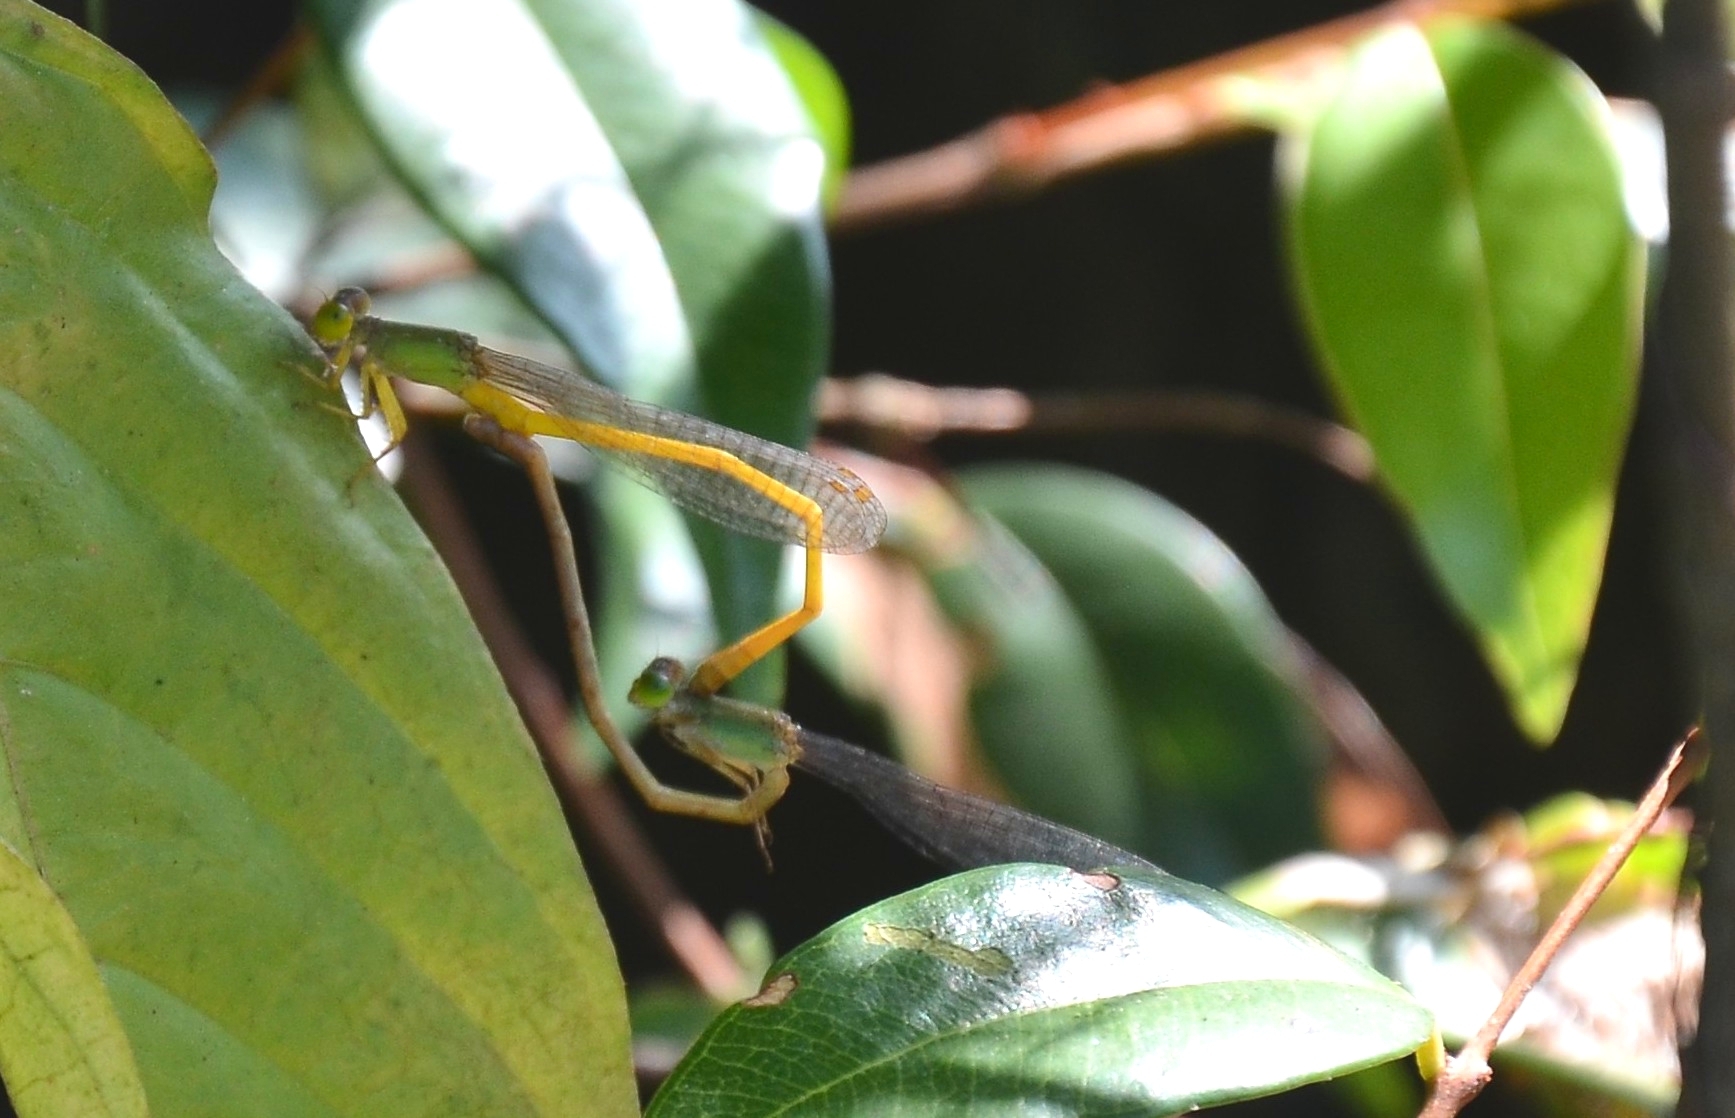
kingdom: Animalia
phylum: Arthropoda
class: Insecta
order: Odonata
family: Coenagrionidae
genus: Ceriagrion
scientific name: Ceriagrion coromandelianum
